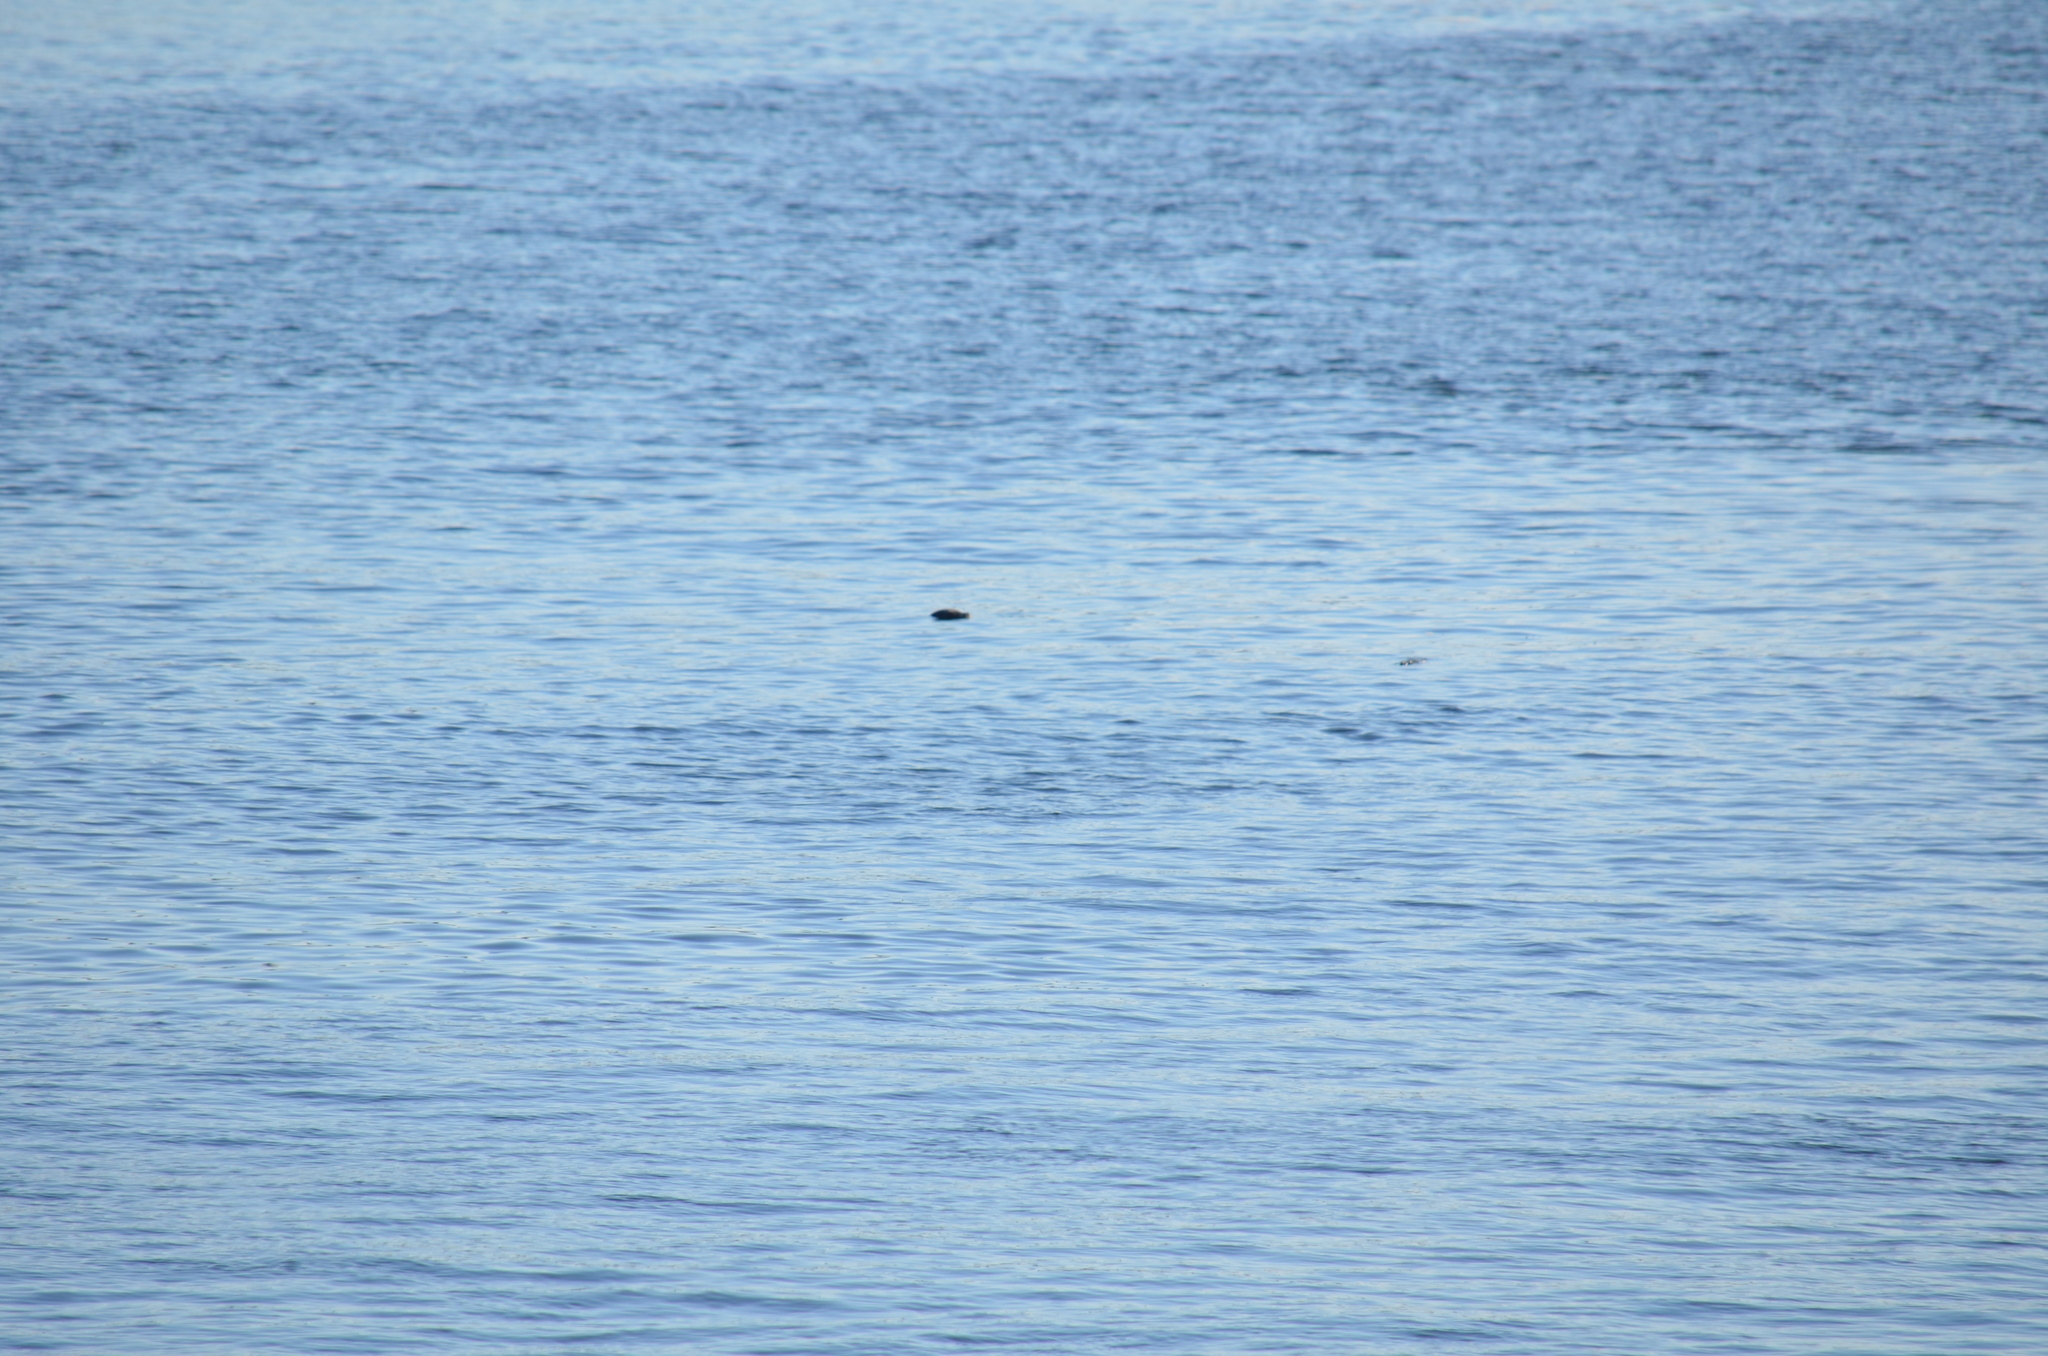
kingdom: Animalia
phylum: Chordata
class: Mammalia
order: Carnivora
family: Phocidae
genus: Phoca
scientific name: Phoca vitulina
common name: Harbor seal
